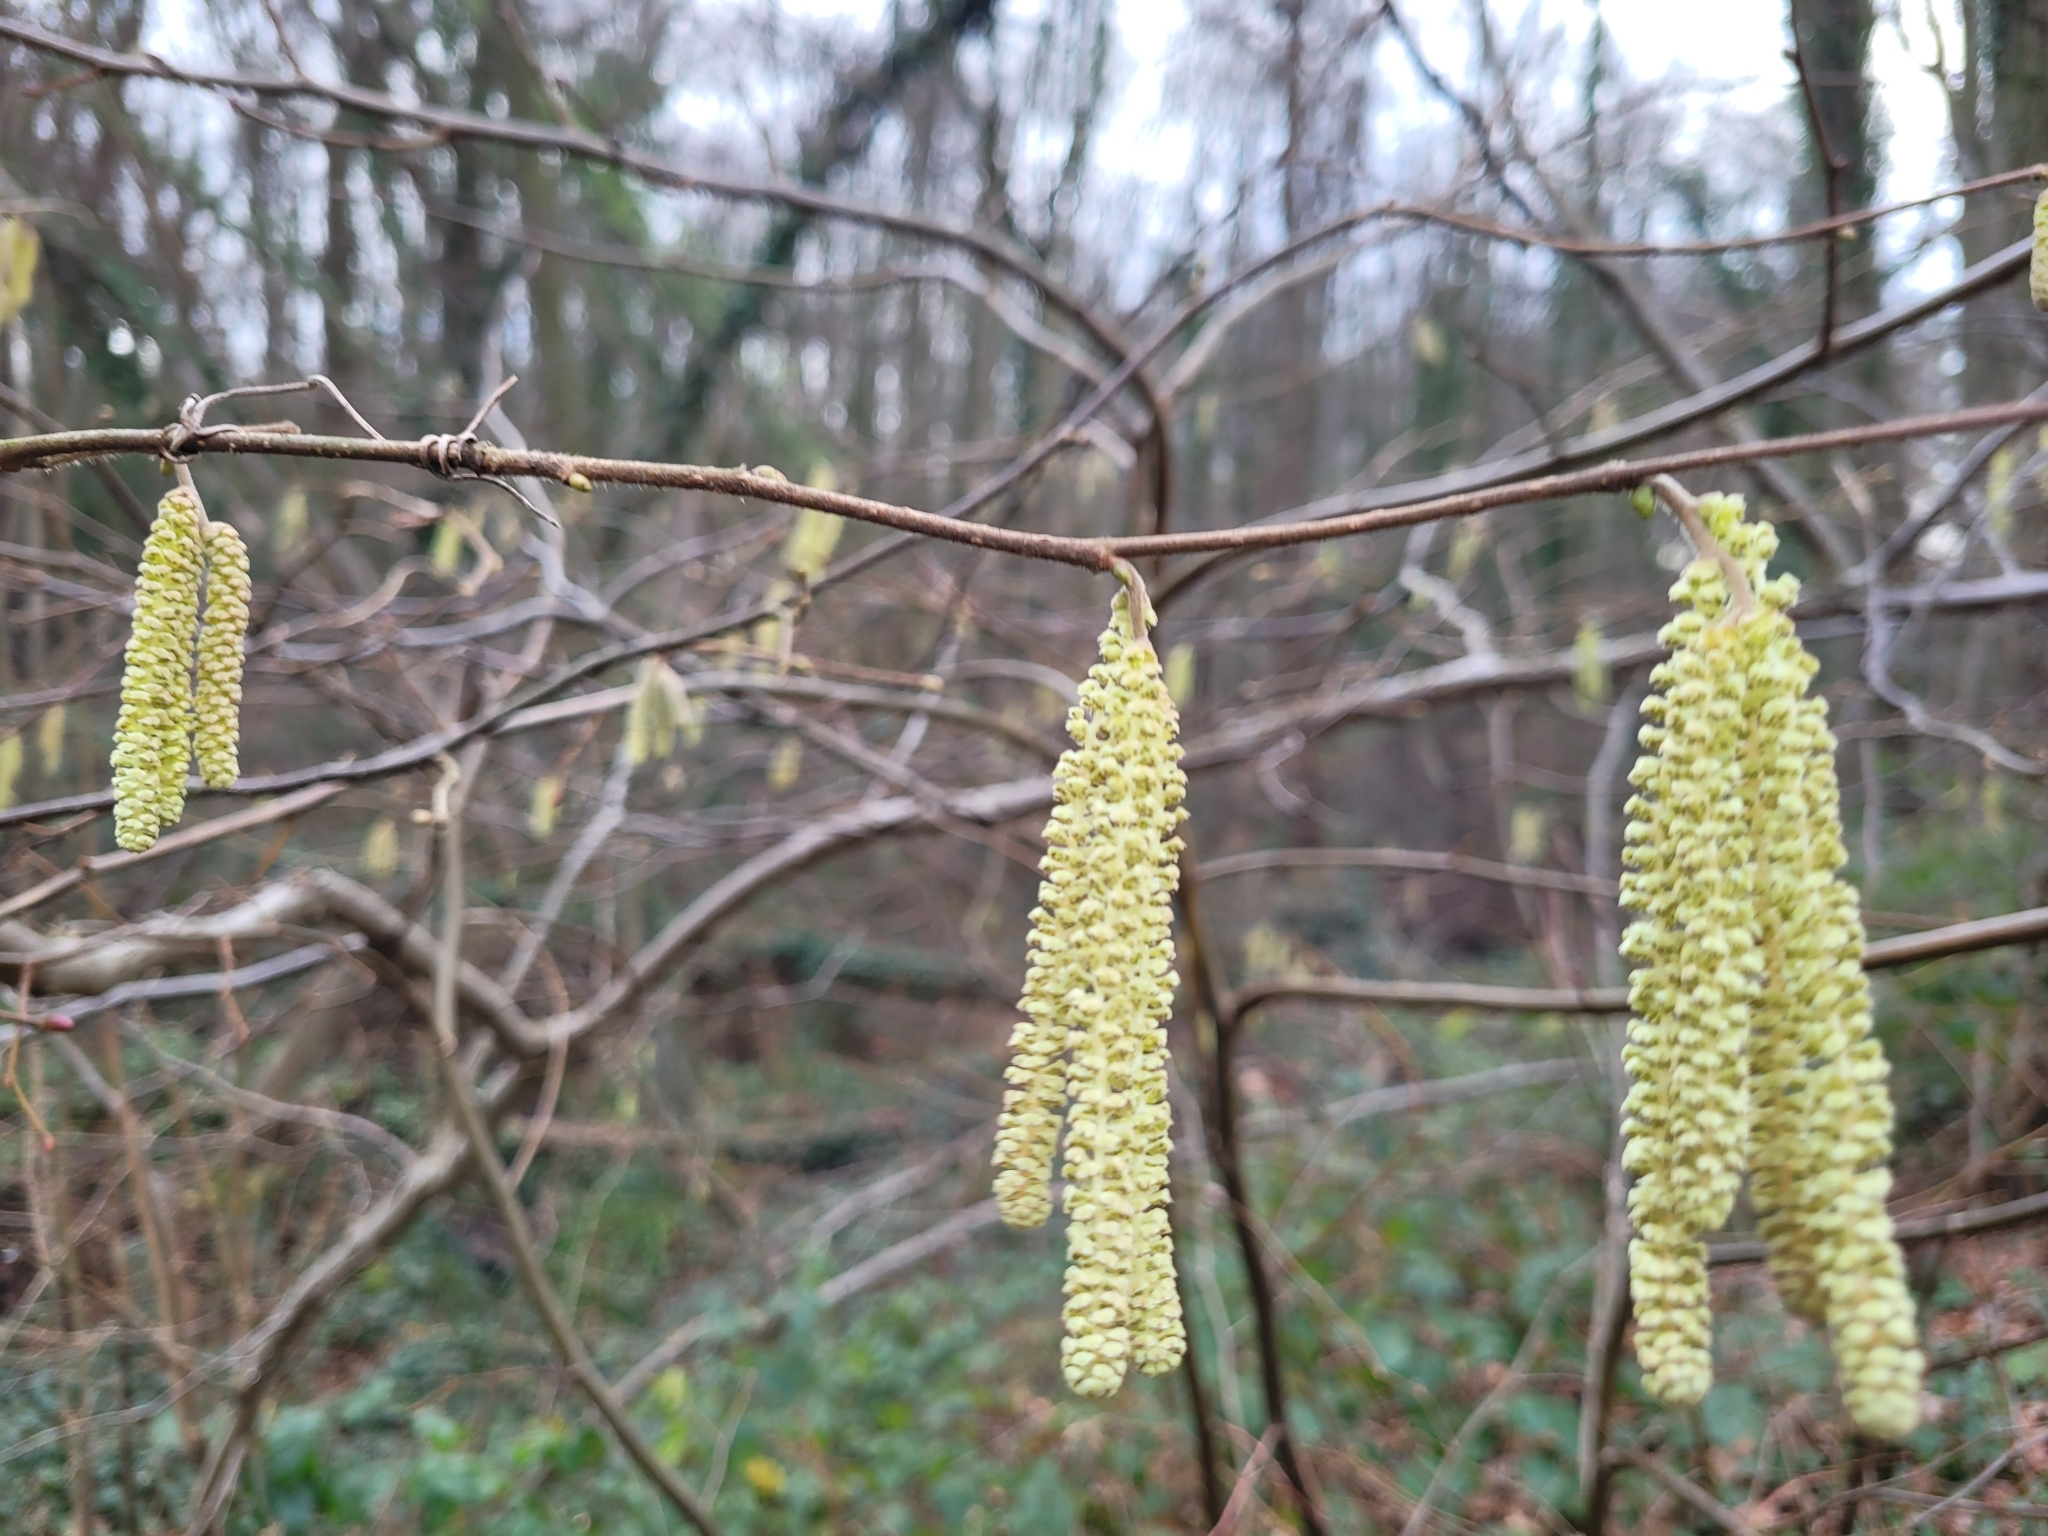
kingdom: Plantae
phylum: Tracheophyta
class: Magnoliopsida
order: Fagales
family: Betulaceae
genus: Corylus
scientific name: Corylus avellana
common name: European hazel
